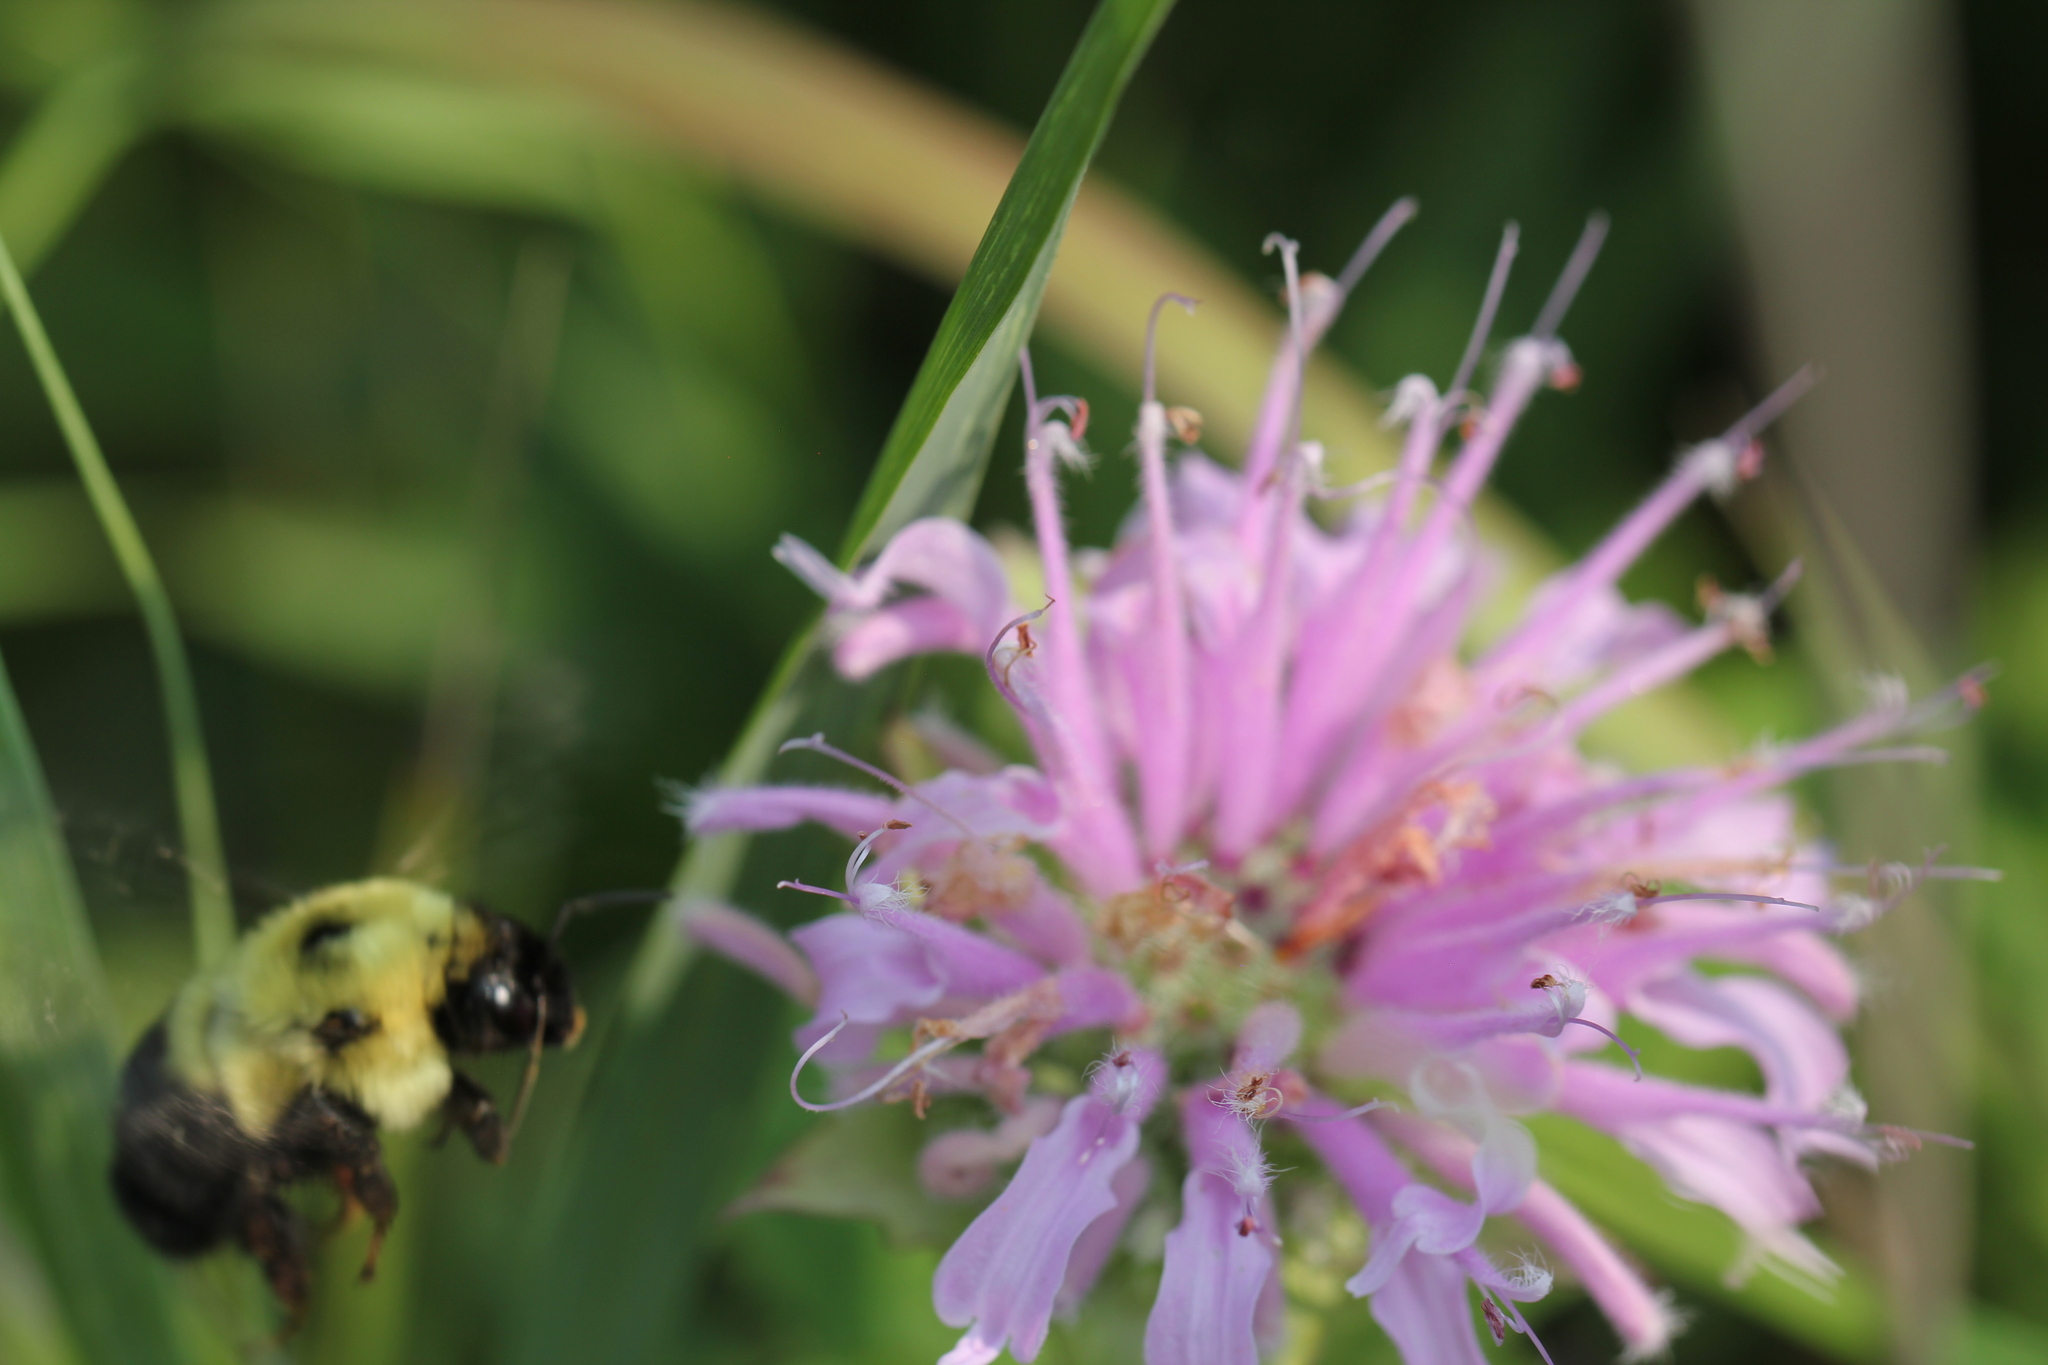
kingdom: Animalia
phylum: Arthropoda
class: Insecta
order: Hymenoptera
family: Apidae
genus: Bombus
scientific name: Bombus bimaculatus
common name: Two-spotted bumble bee
